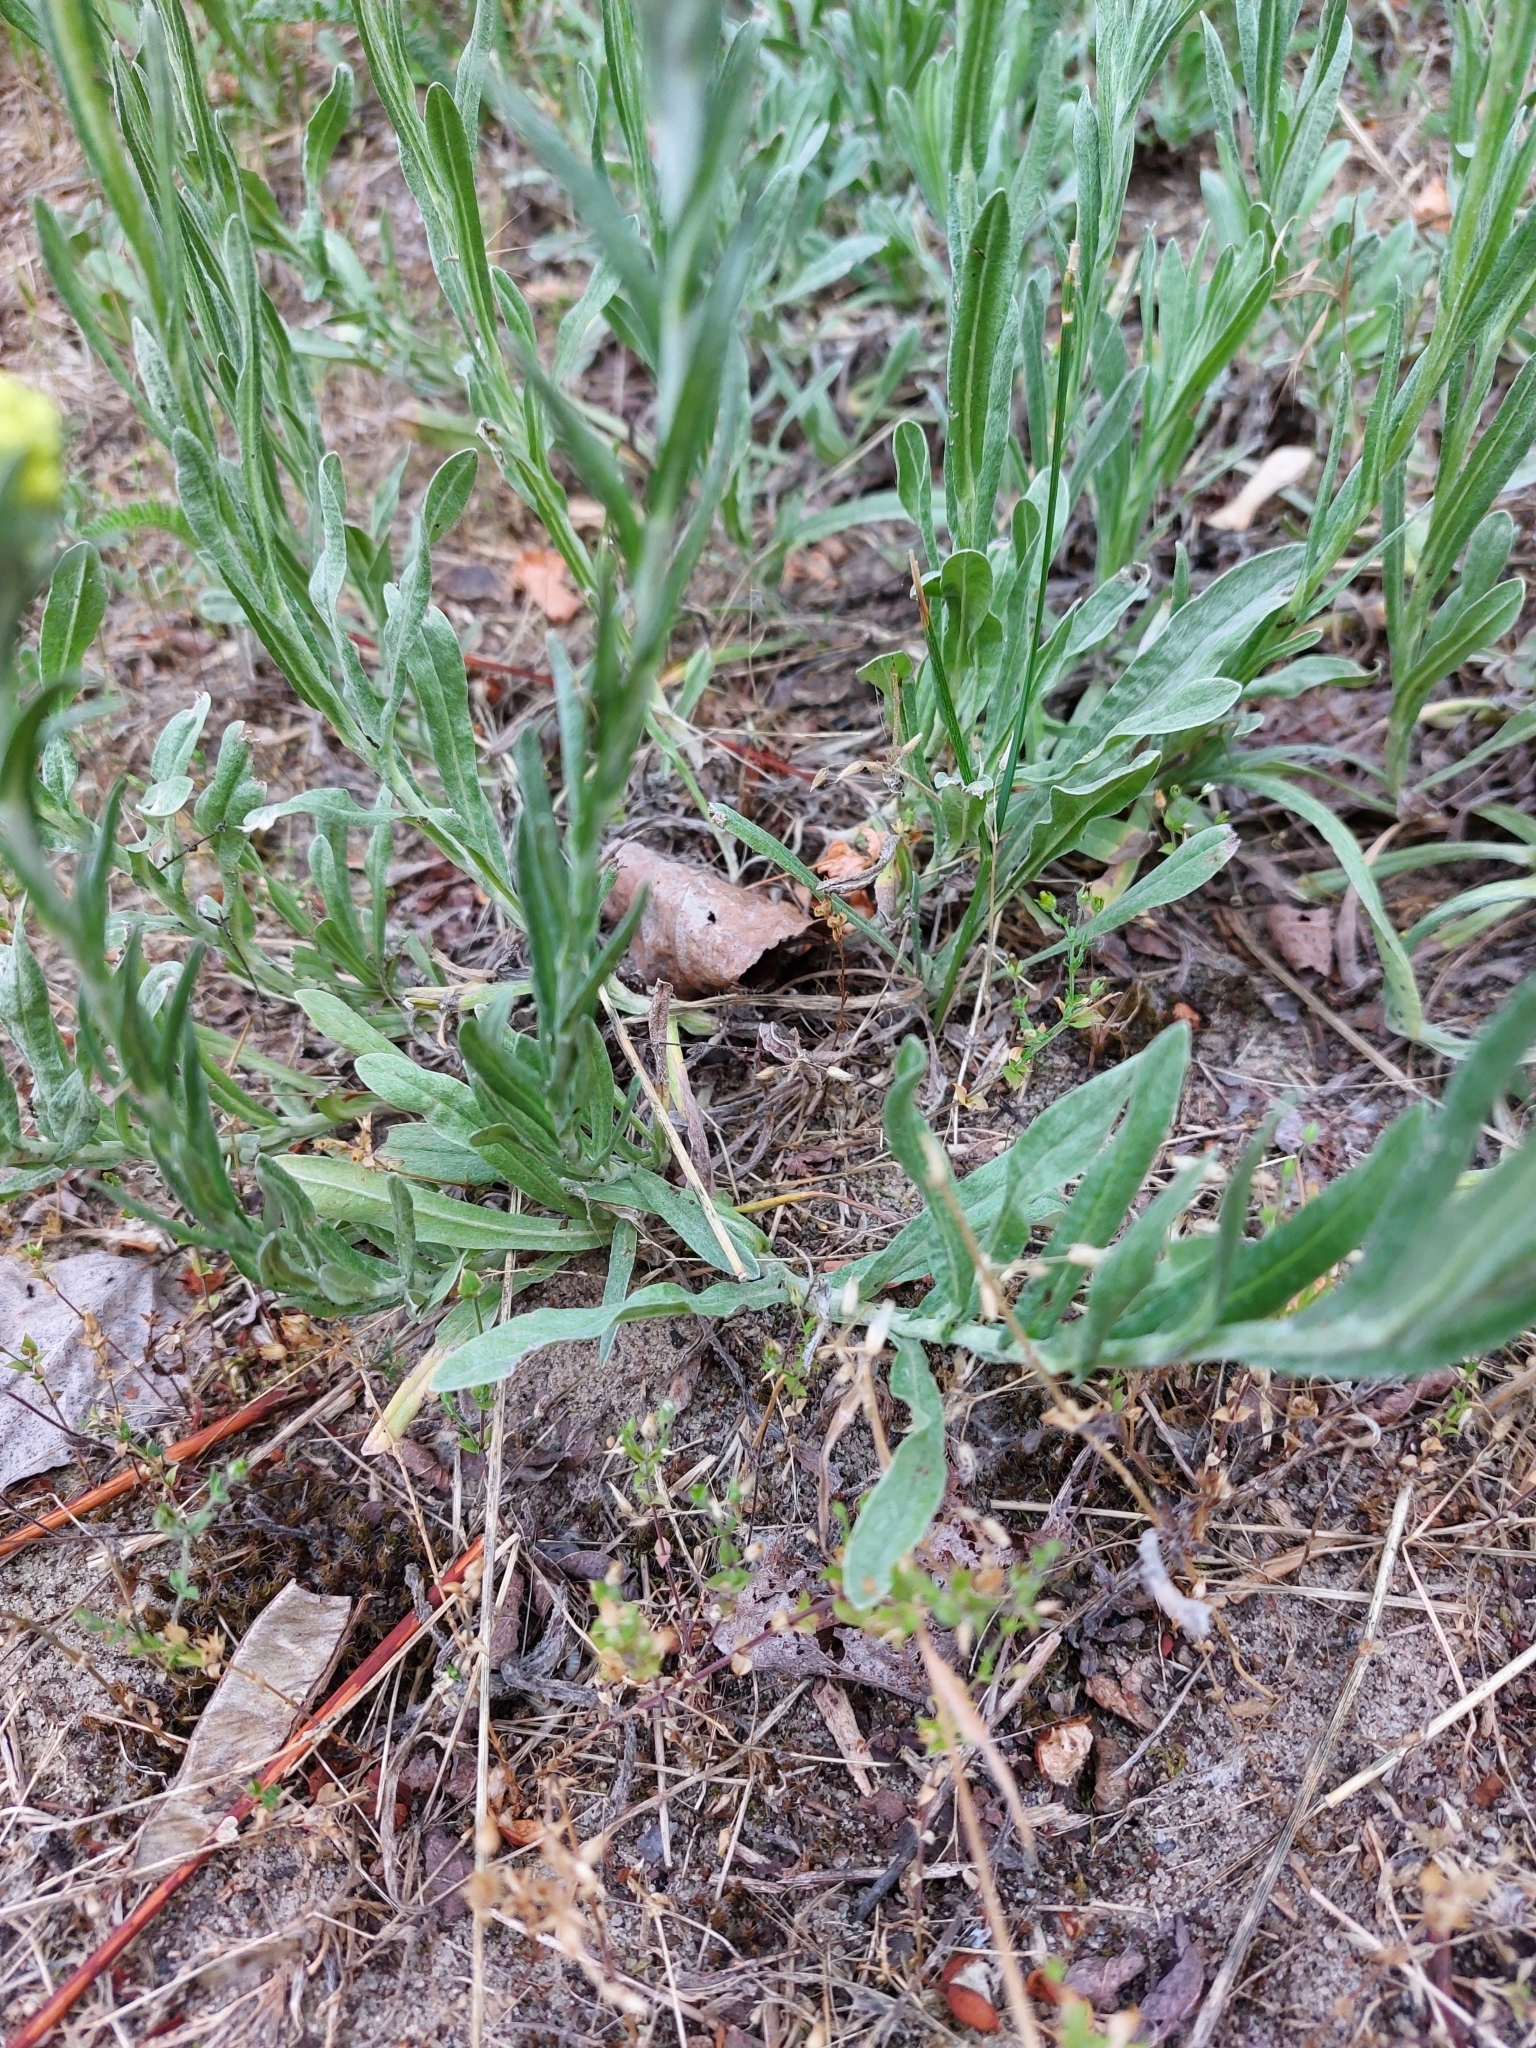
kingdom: Plantae
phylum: Tracheophyta
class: Magnoliopsida
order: Asterales
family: Asteraceae
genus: Helichrysum
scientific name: Helichrysum arenarium
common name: Strawflower
